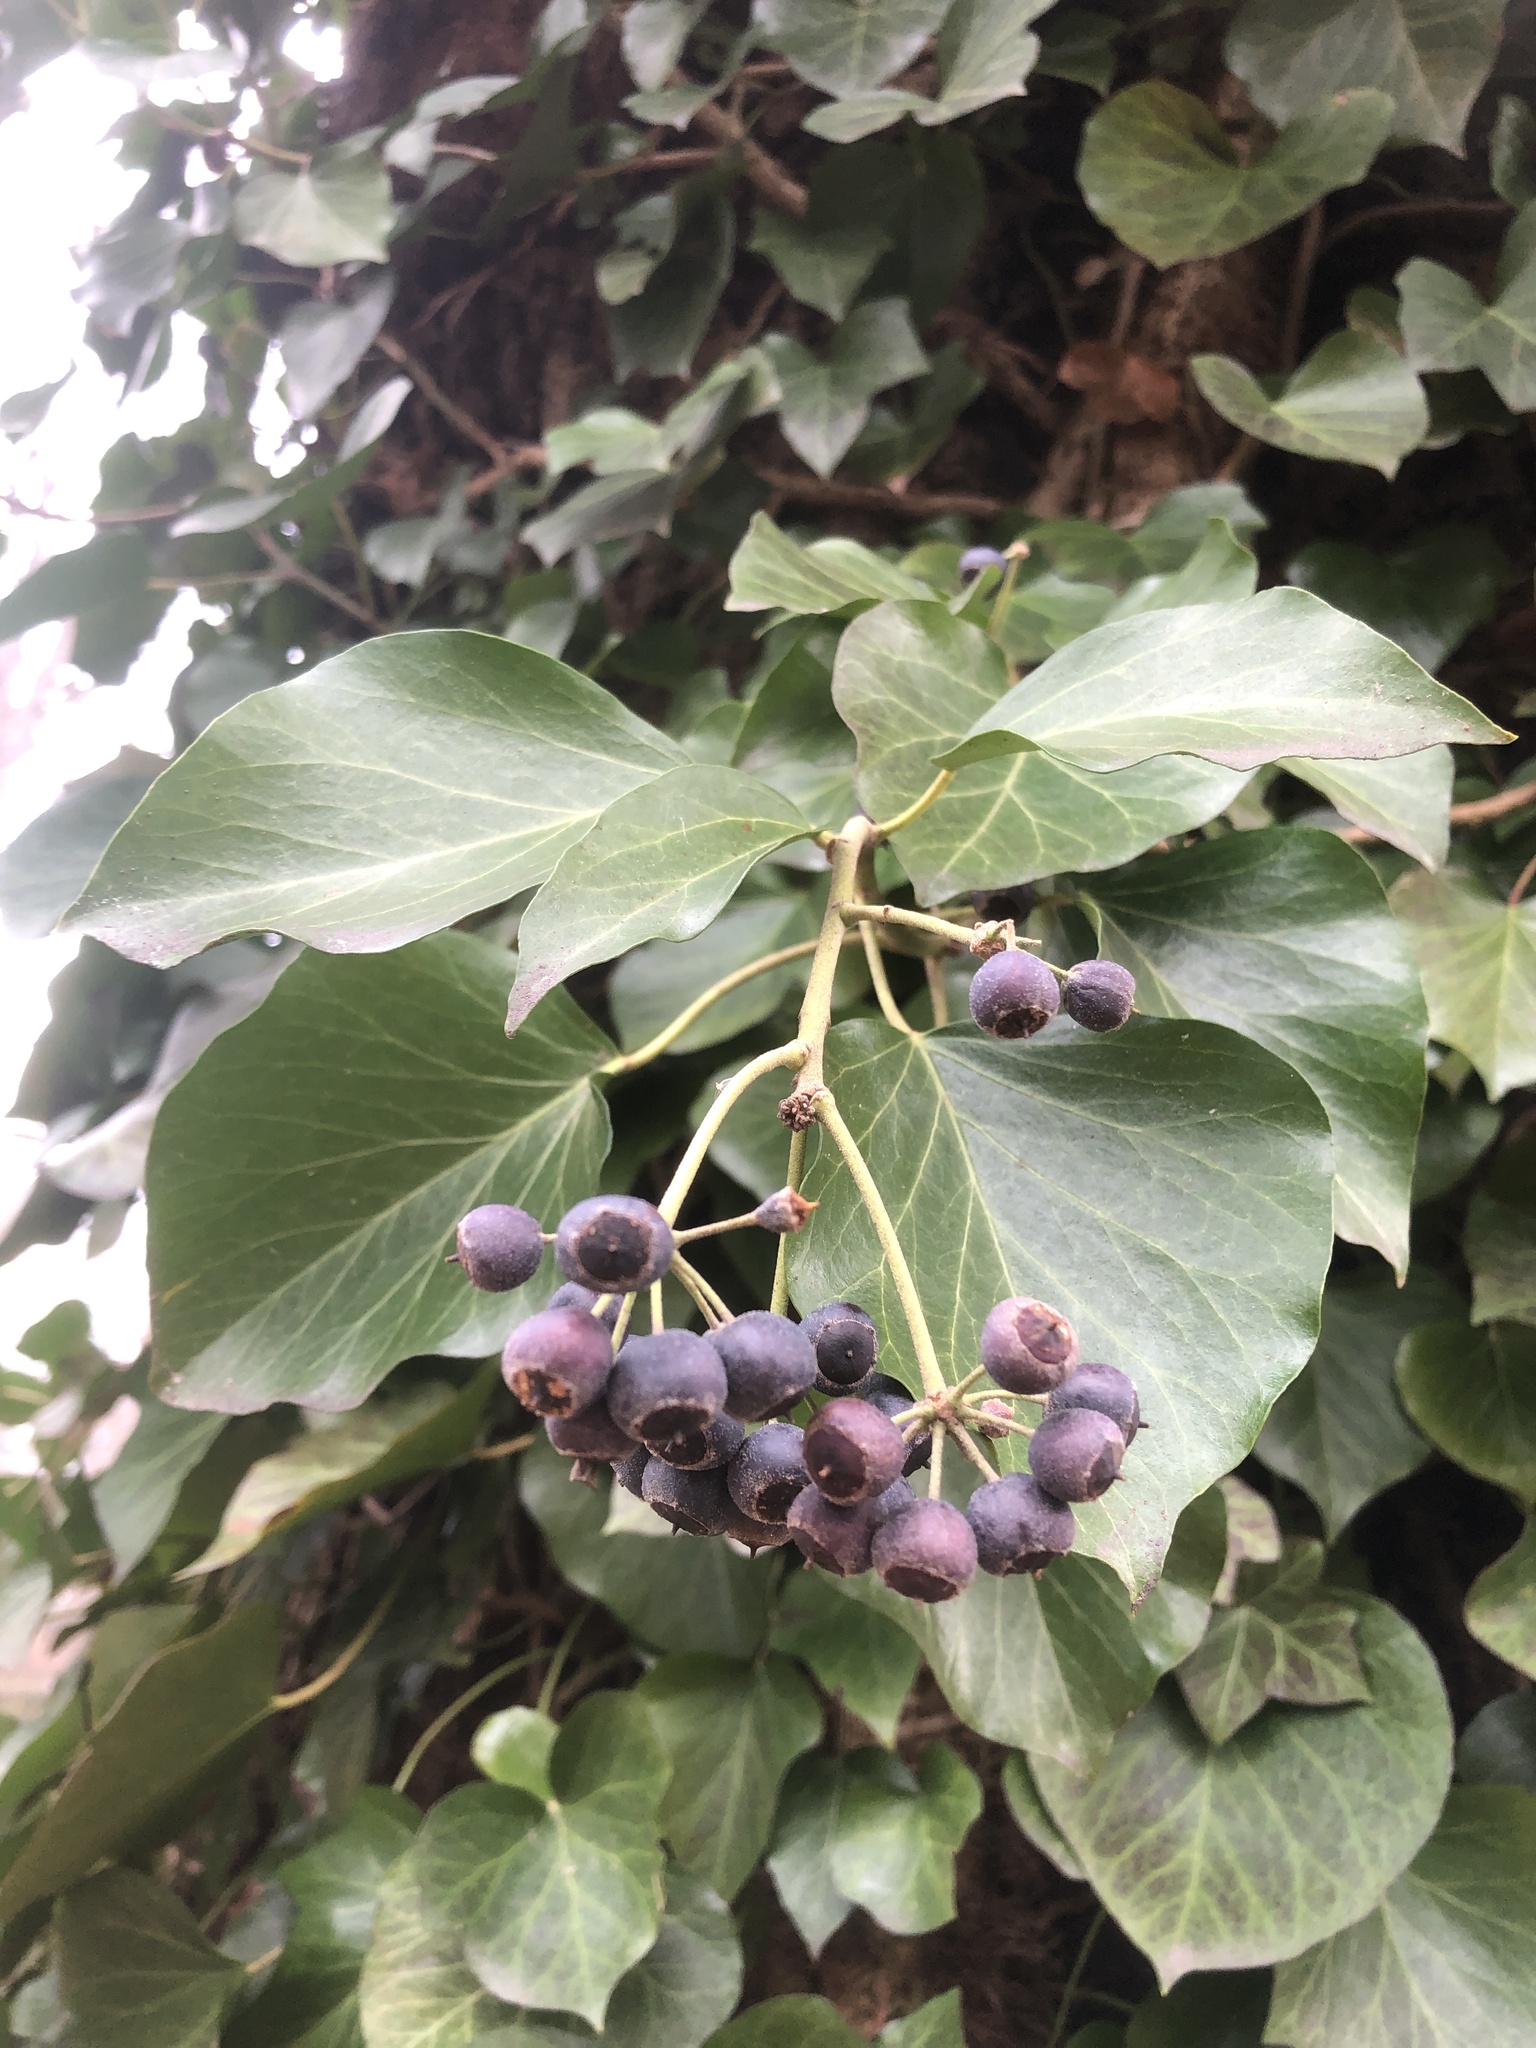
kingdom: Plantae
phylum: Tracheophyta
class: Magnoliopsida
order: Apiales
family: Araliaceae
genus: Hedera
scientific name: Hedera helix
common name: Ivy
